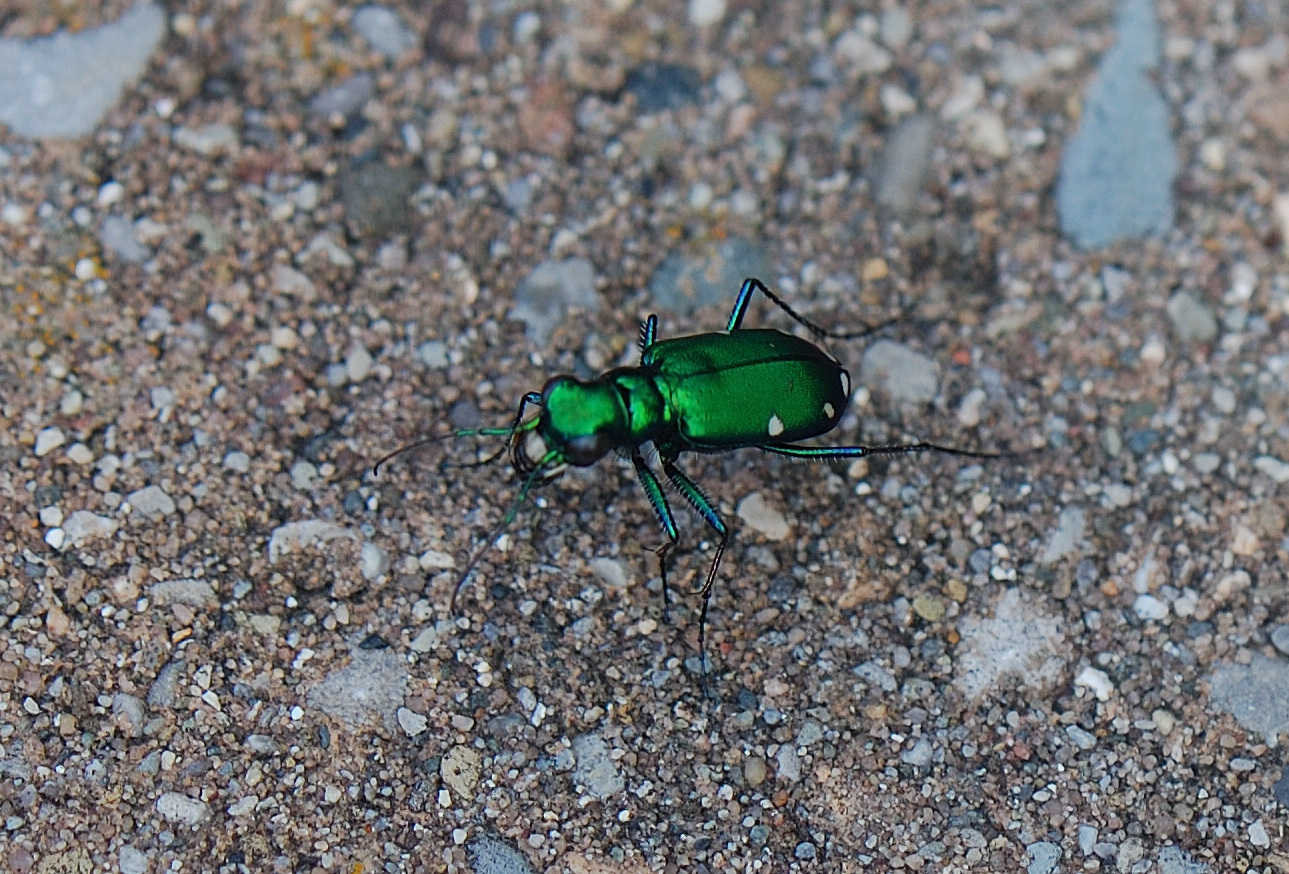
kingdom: Animalia
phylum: Arthropoda
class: Insecta
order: Coleoptera
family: Carabidae
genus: Cicindela
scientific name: Cicindela sexguttata
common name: Six-spotted tiger beetle
